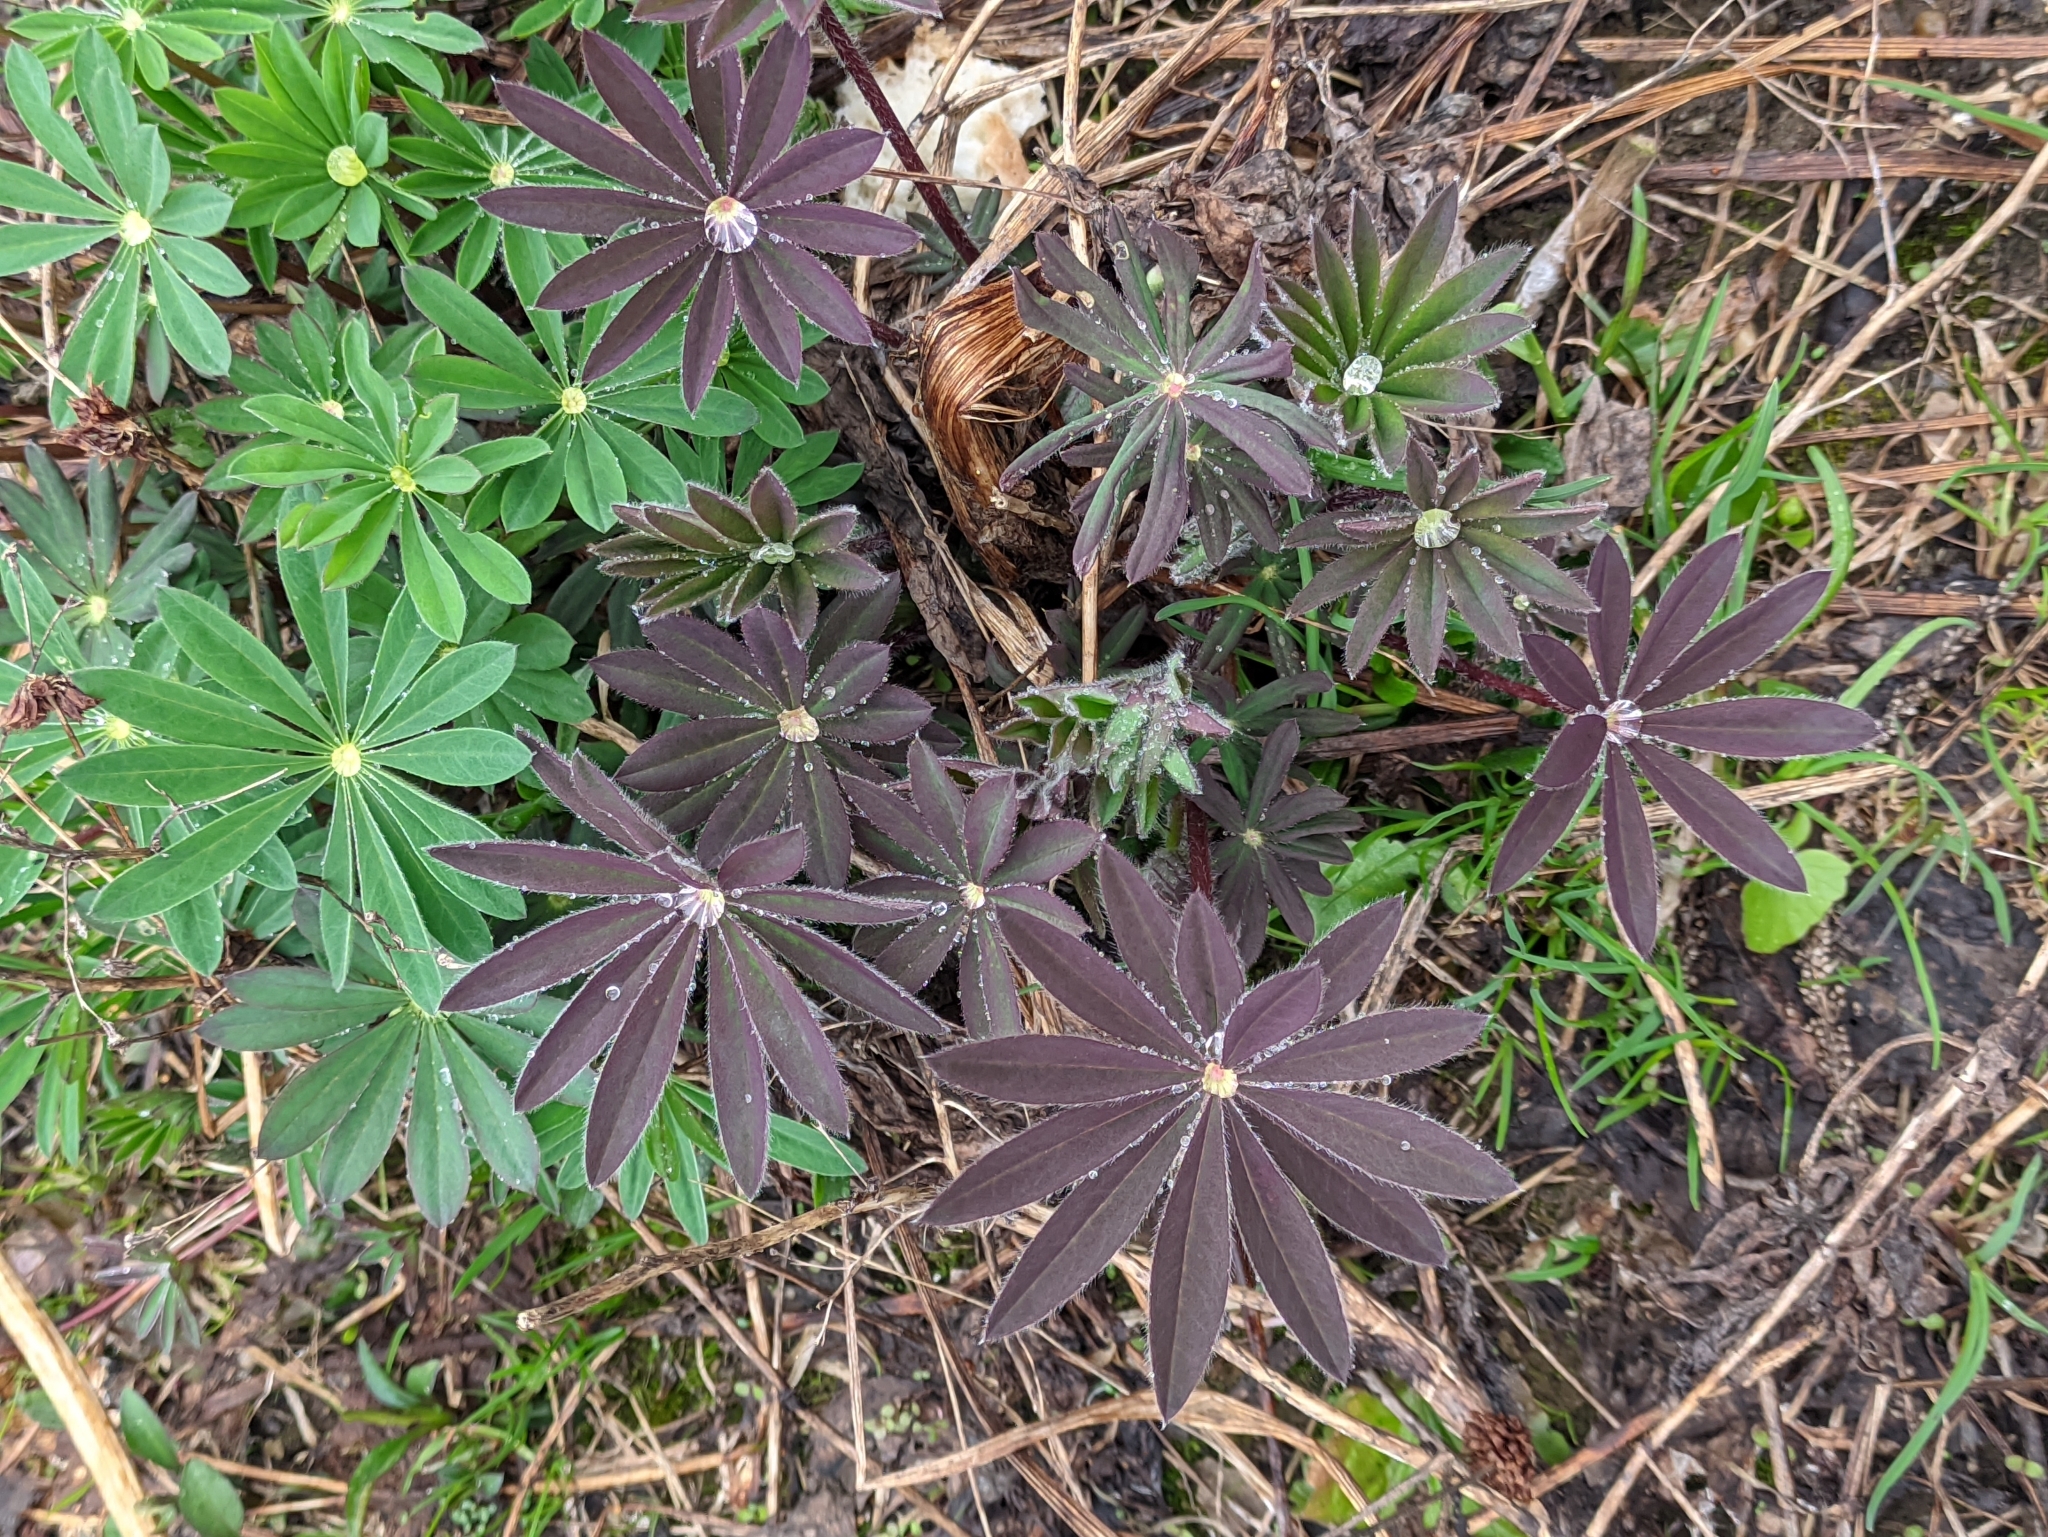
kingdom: Plantae
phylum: Tracheophyta
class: Magnoliopsida
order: Fabales
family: Fabaceae
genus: Lupinus
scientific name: Lupinus polyphyllus
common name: Garden lupin
